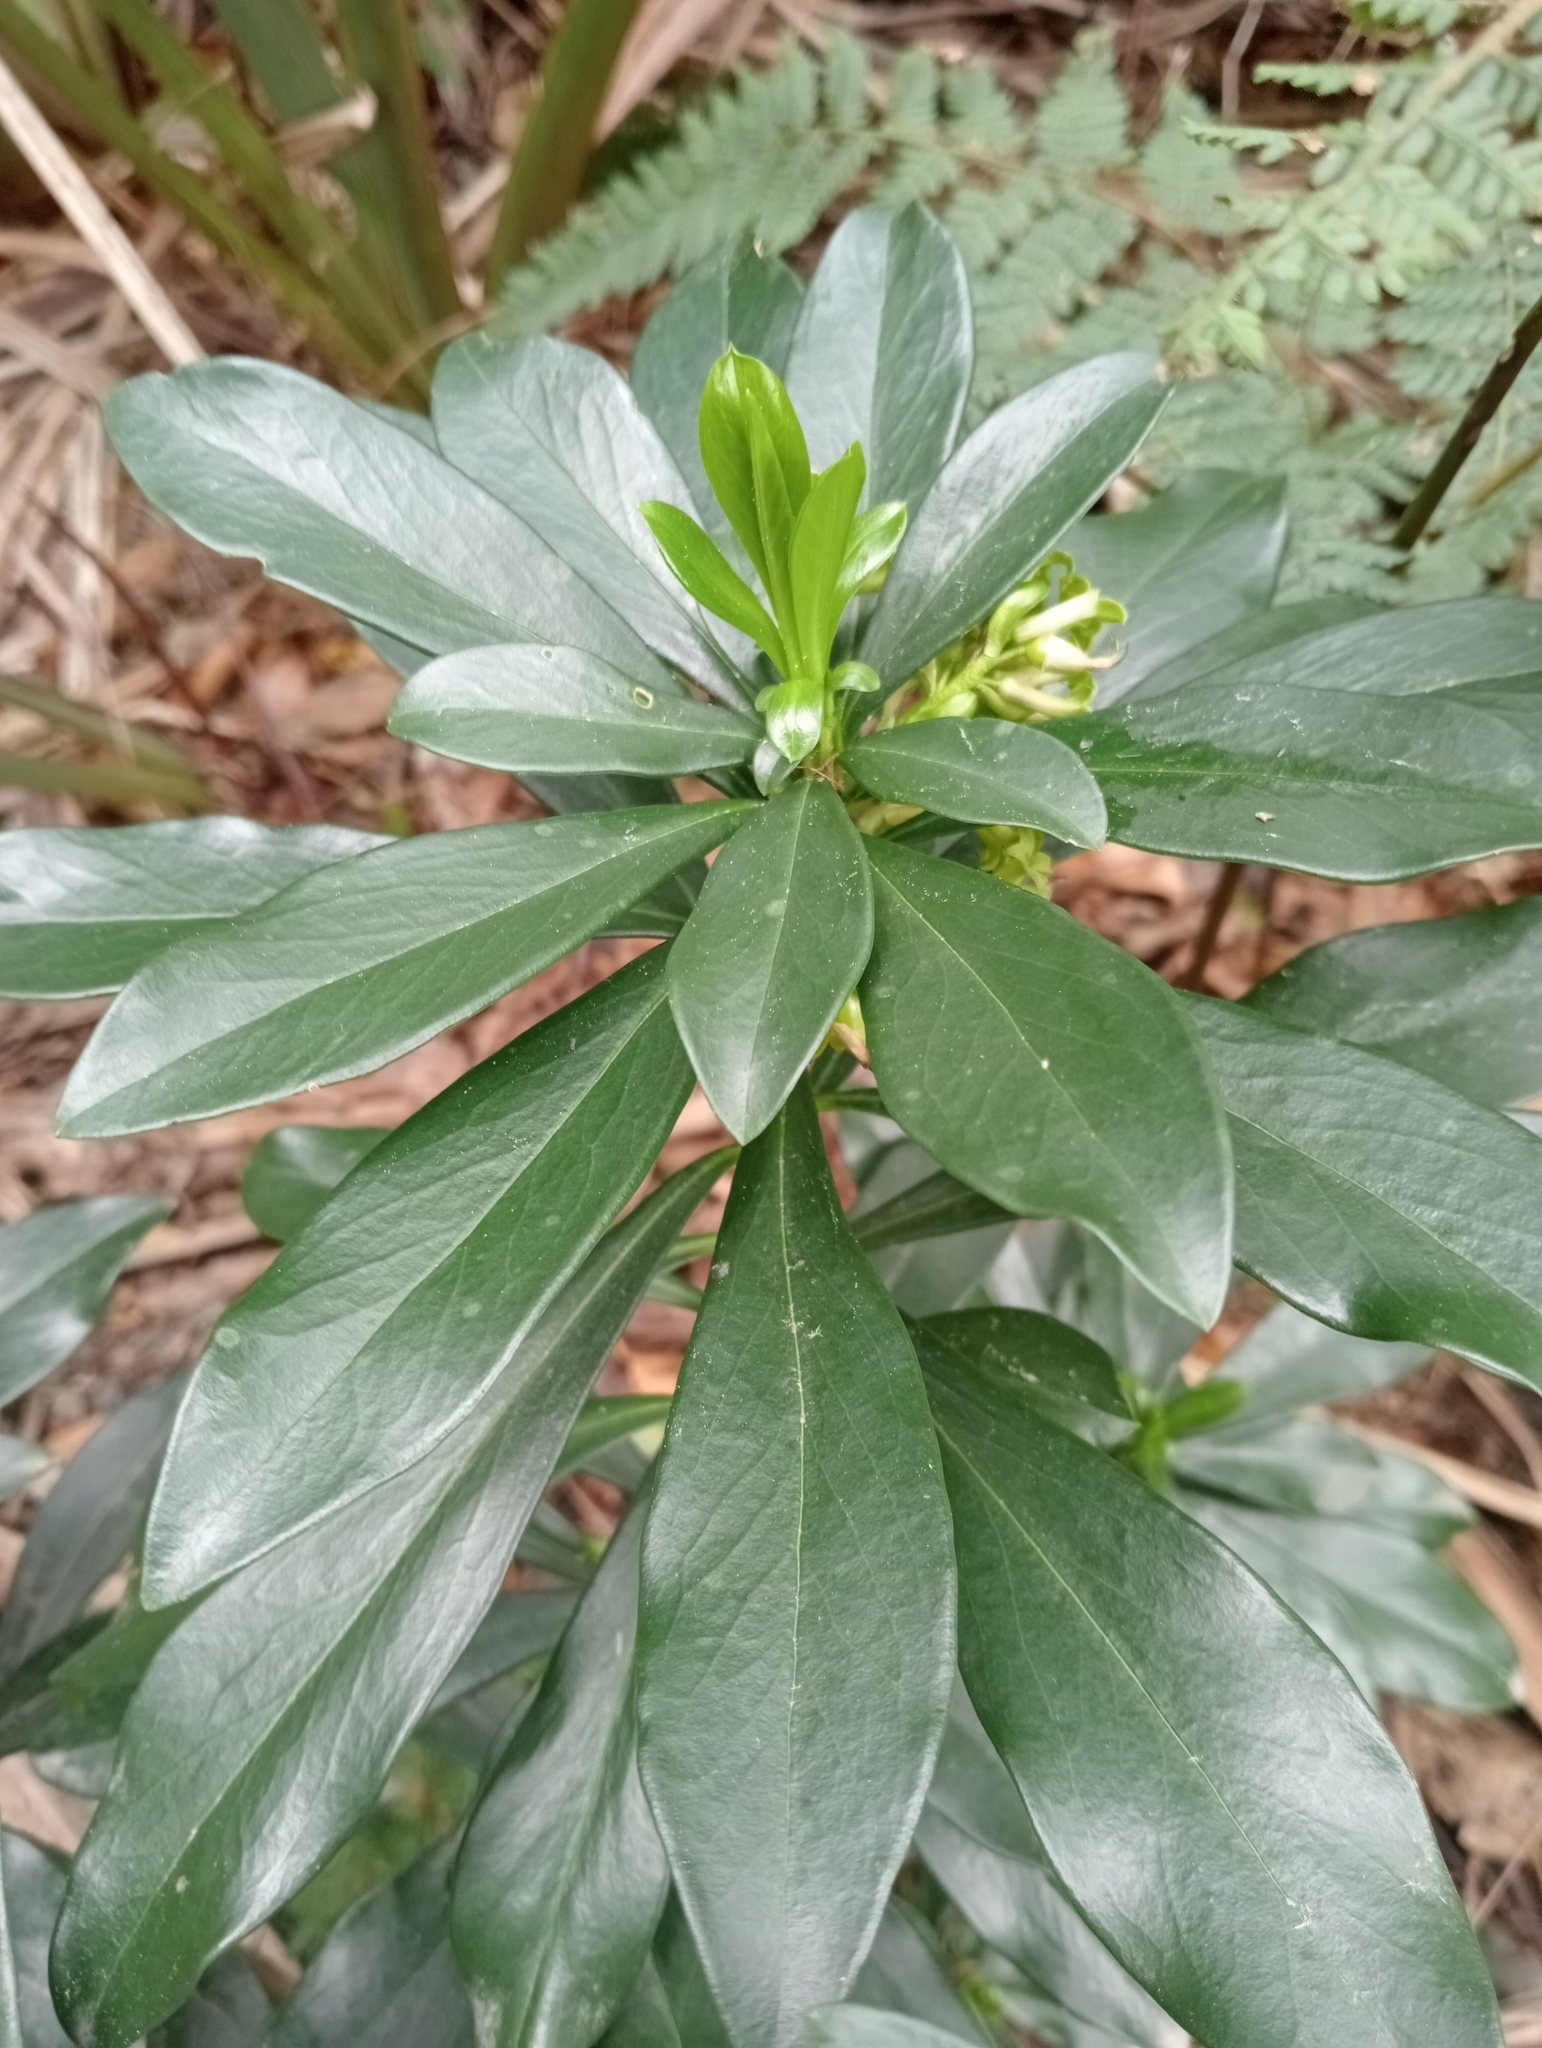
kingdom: Plantae
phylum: Tracheophyta
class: Magnoliopsida
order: Malvales
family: Thymelaeaceae
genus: Daphne
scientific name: Daphne laureola
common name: Spurge-laurel
